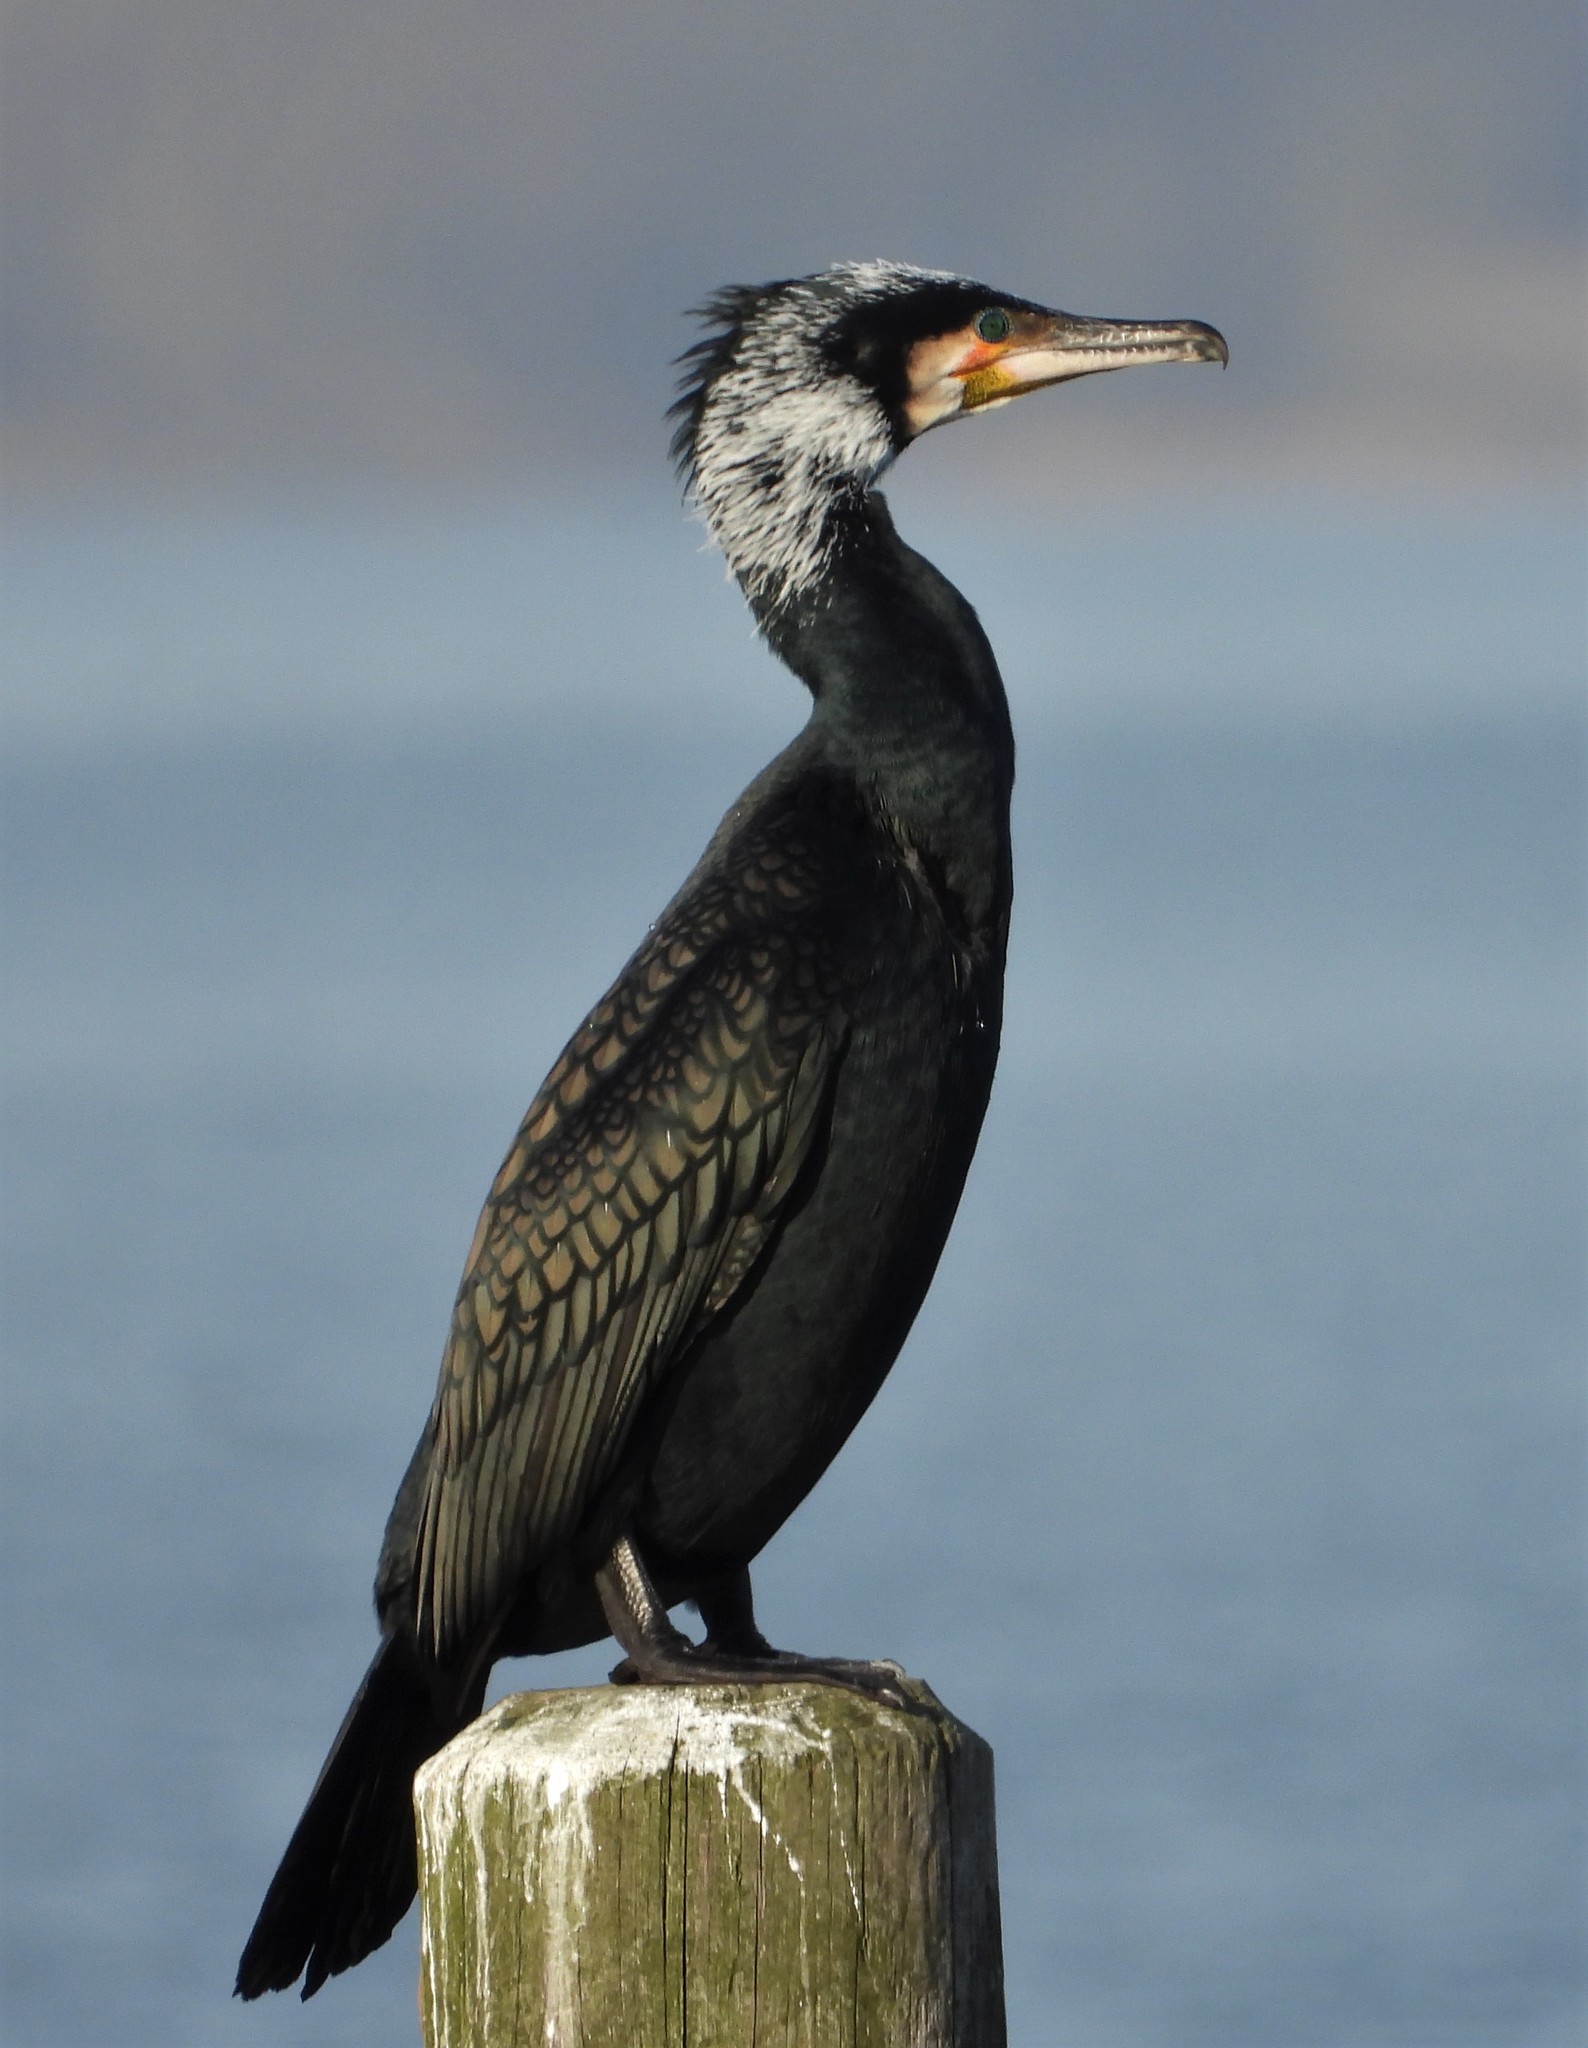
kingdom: Animalia
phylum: Chordata
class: Aves
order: Suliformes
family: Phalacrocoracidae
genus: Phalacrocorax
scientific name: Phalacrocorax carbo
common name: Great cormorant
